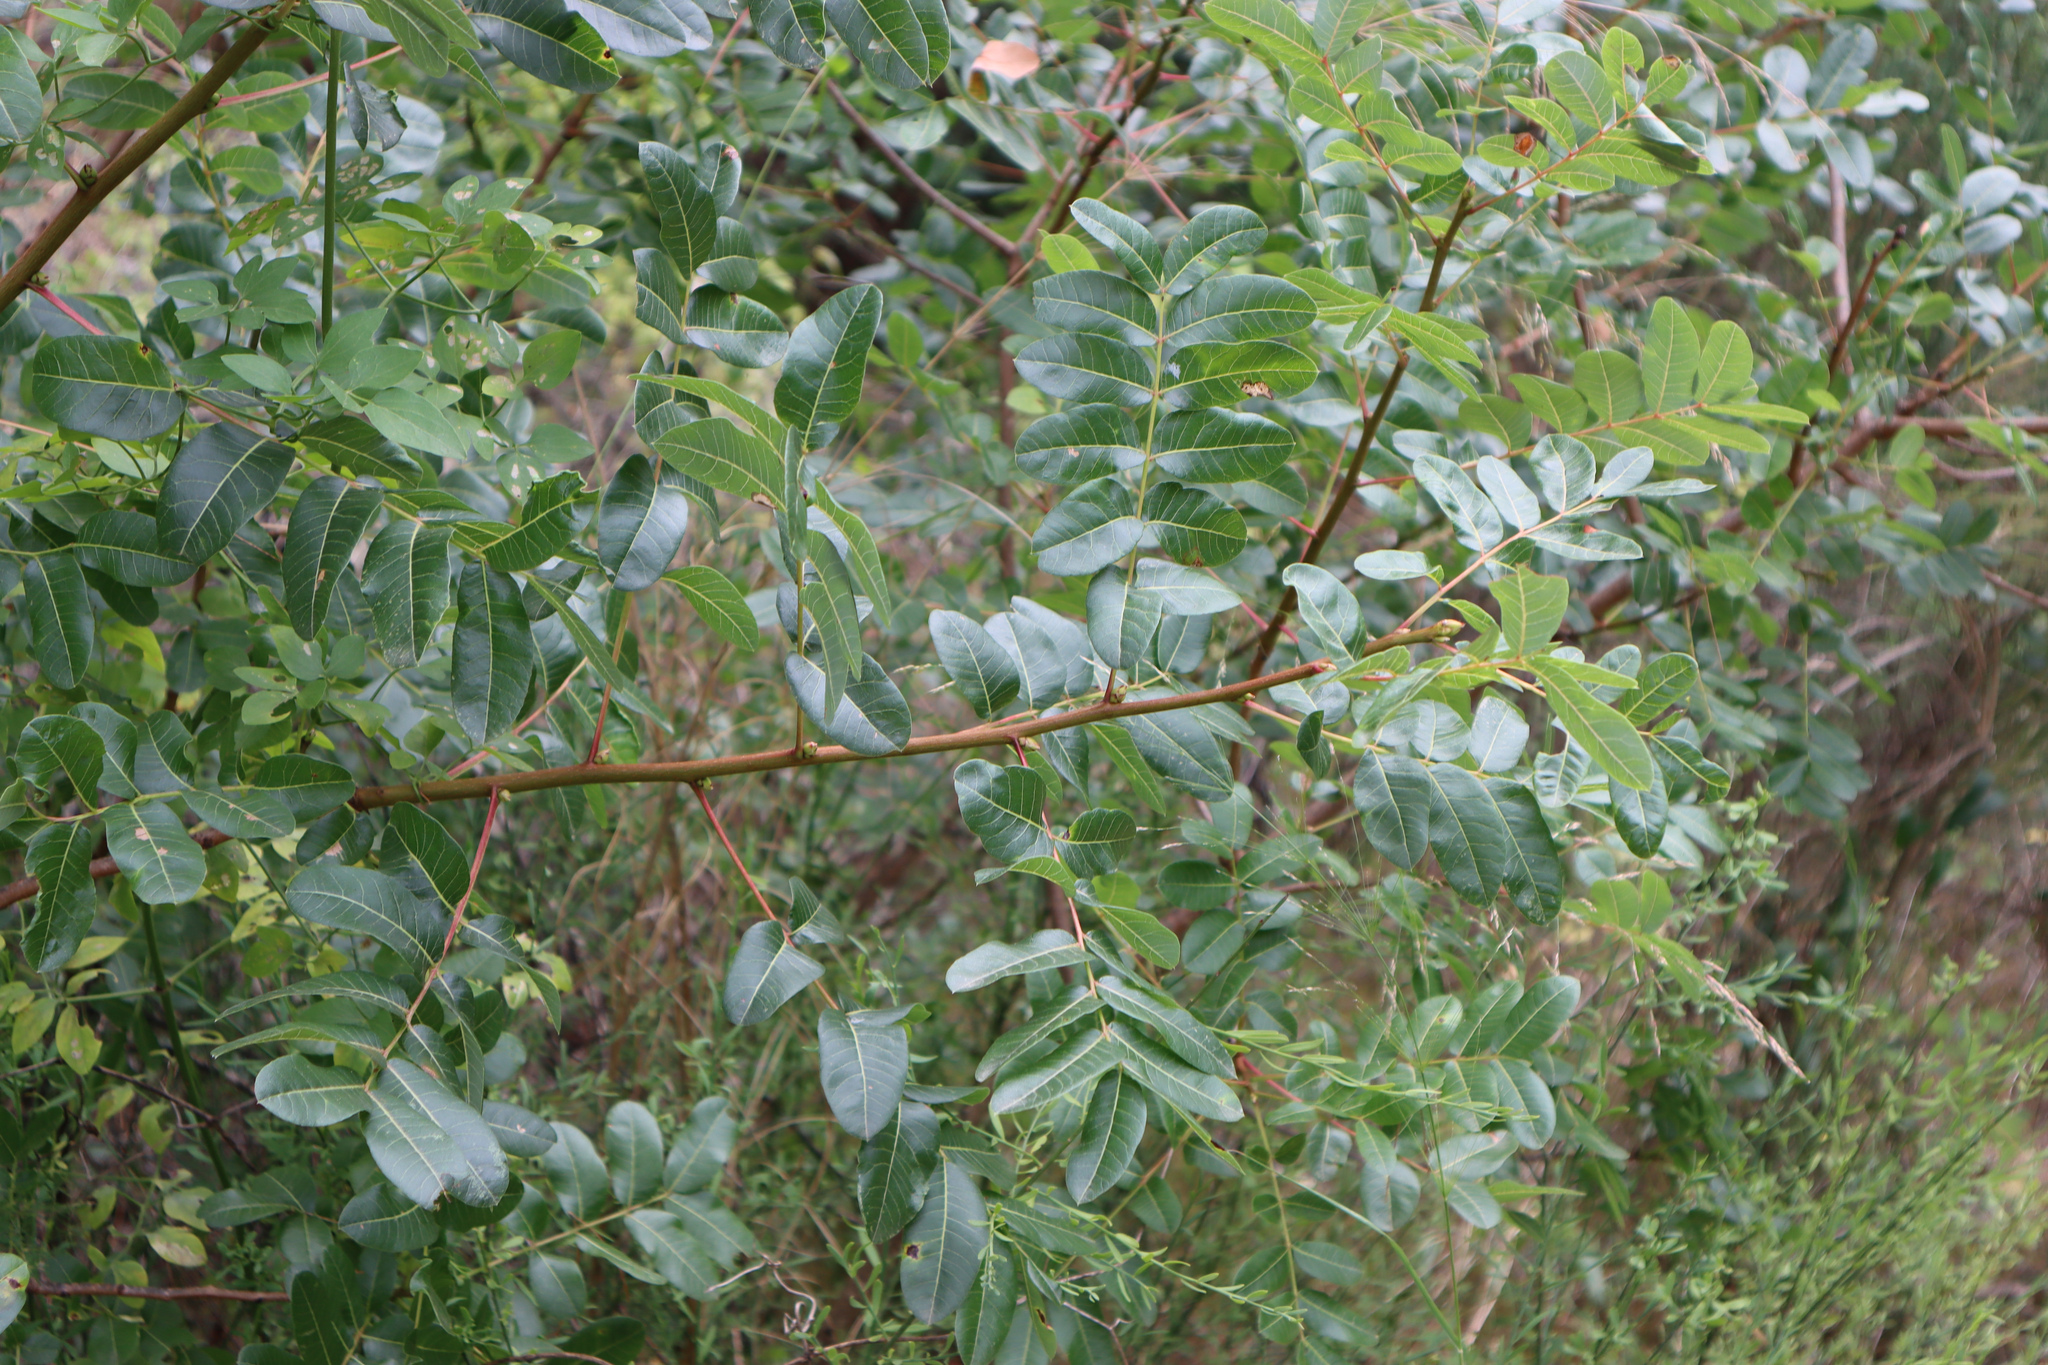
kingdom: Plantae
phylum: Tracheophyta
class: Magnoliopsida
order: Sapindales
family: Anacardiaceae
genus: Pistacia
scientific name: Pistacia terebinthus
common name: Terebinth
